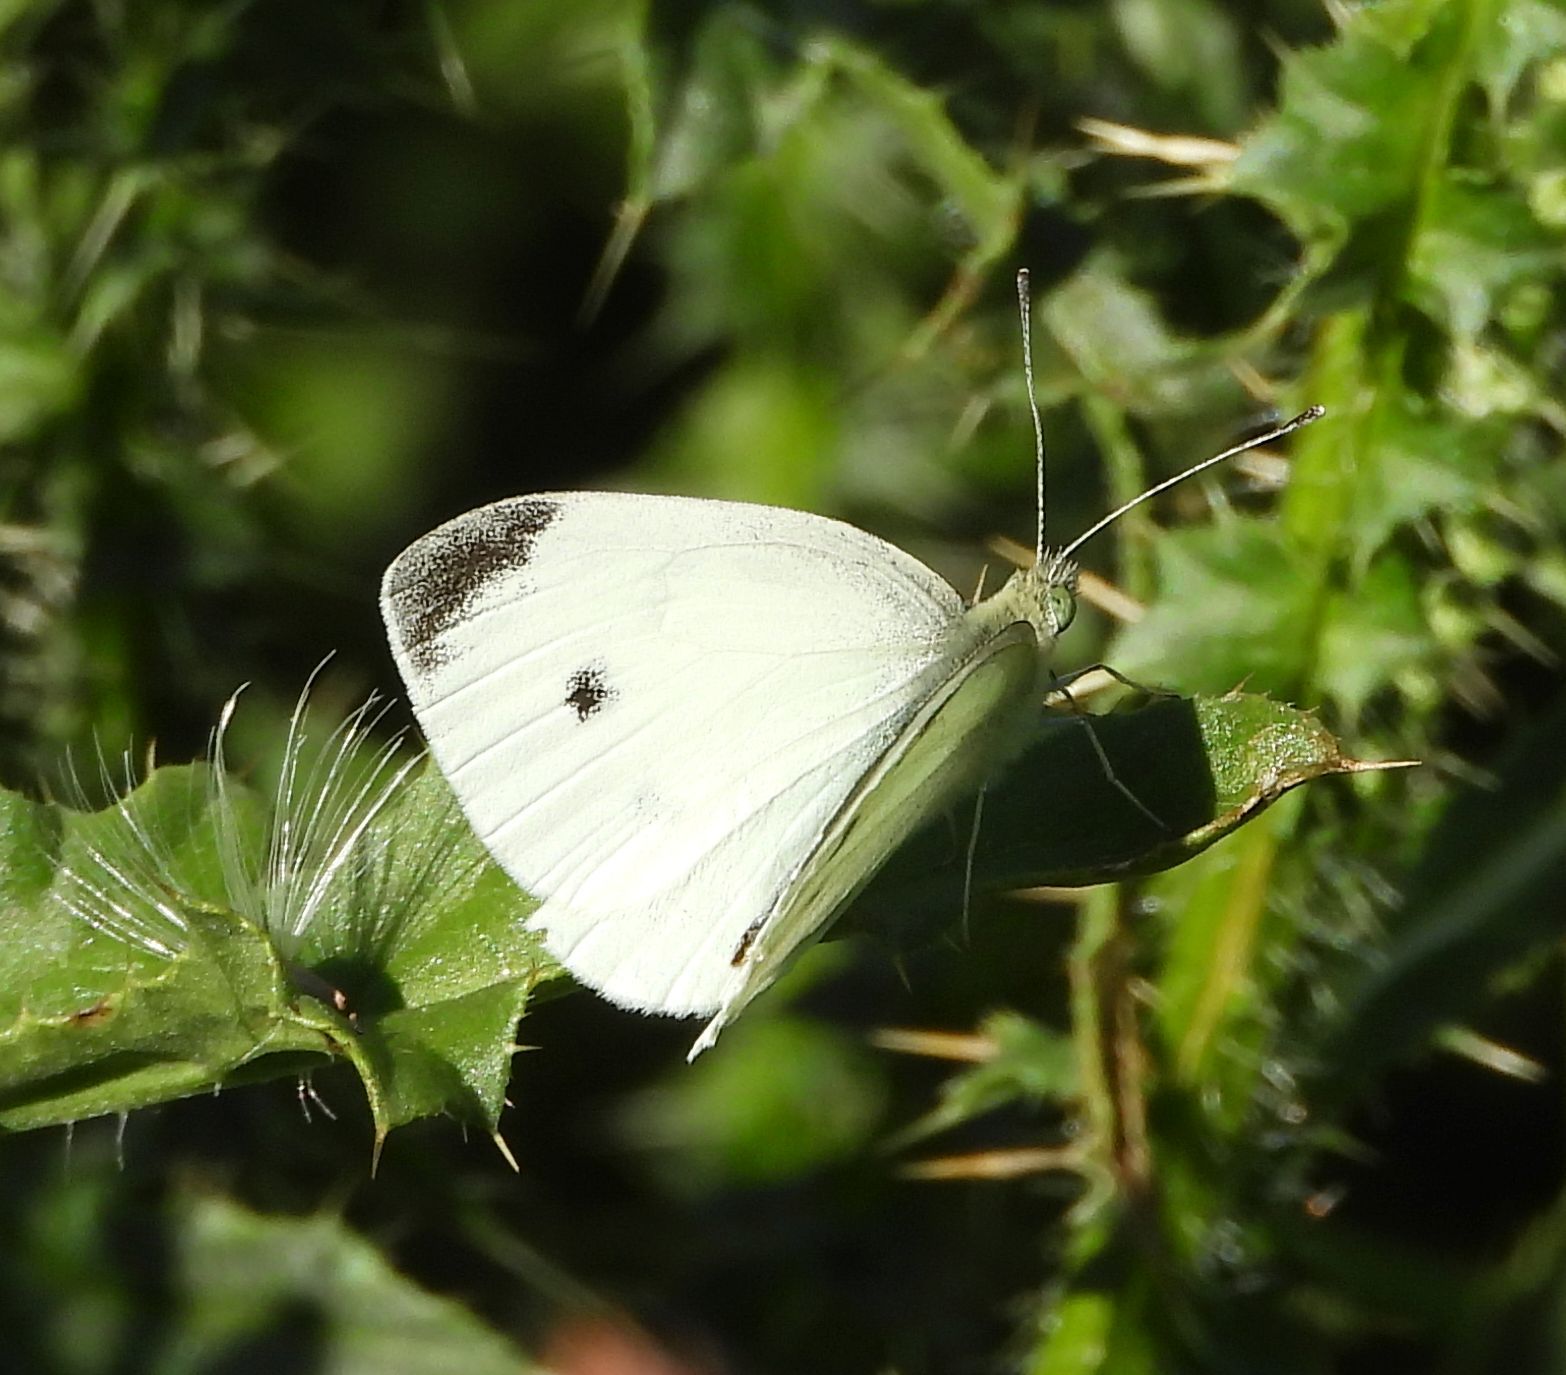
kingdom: Animalia
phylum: Arthropoda
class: Insecta
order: Lepidoptera
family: Pieridae
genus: Pieris
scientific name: Pieris rapae
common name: Small white
